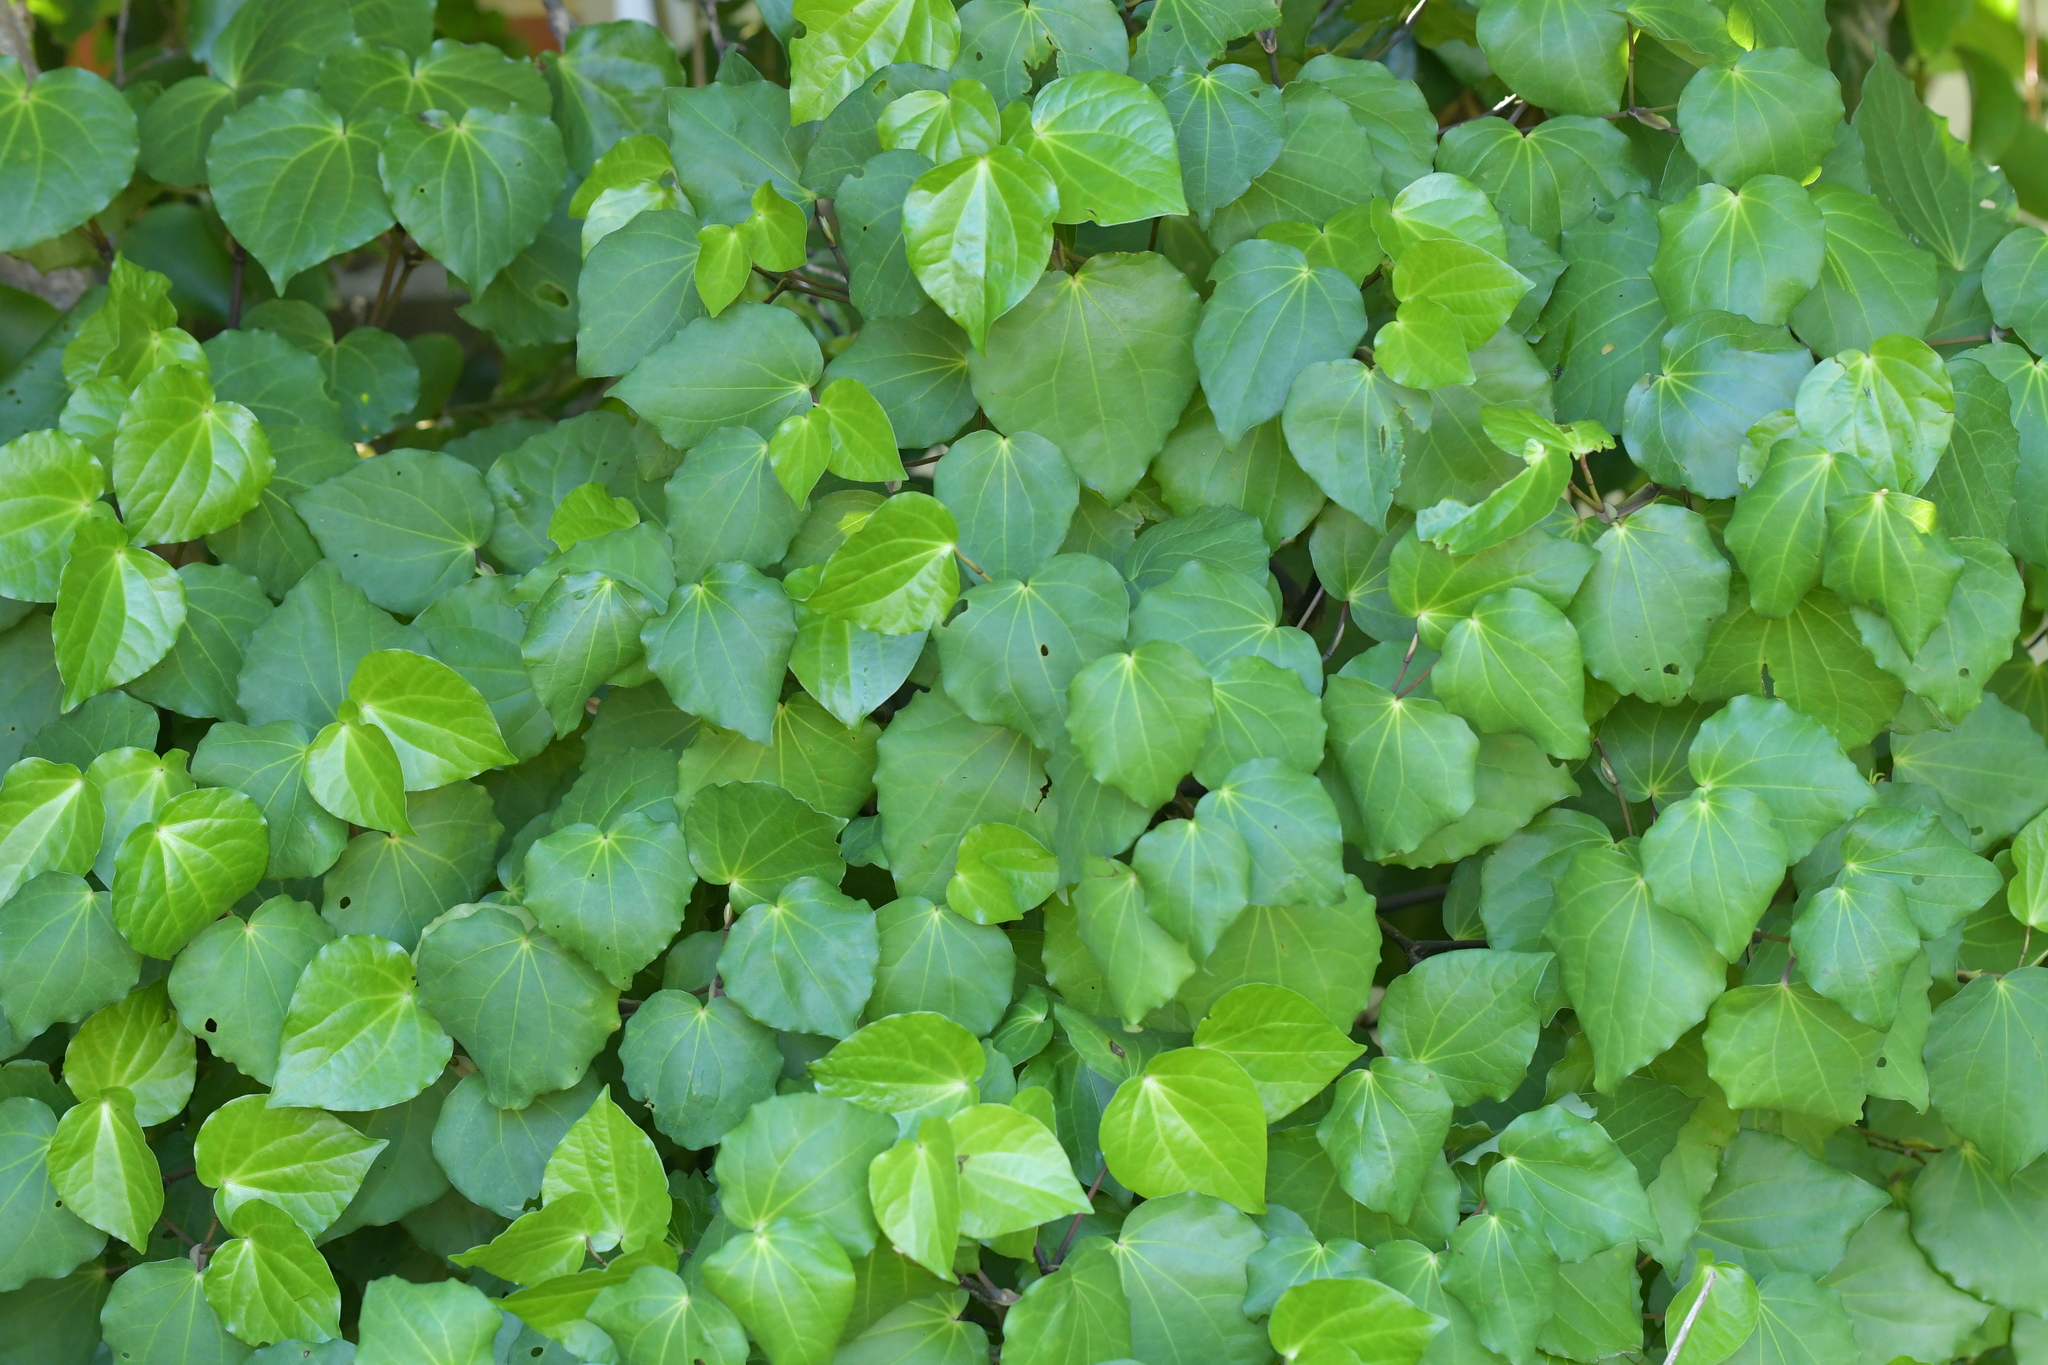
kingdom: Plantae
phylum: Tracheophyta
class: Magnoliopsida
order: Piperales
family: Piperaceae
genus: Macropiper
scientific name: Macropiper excelsum
